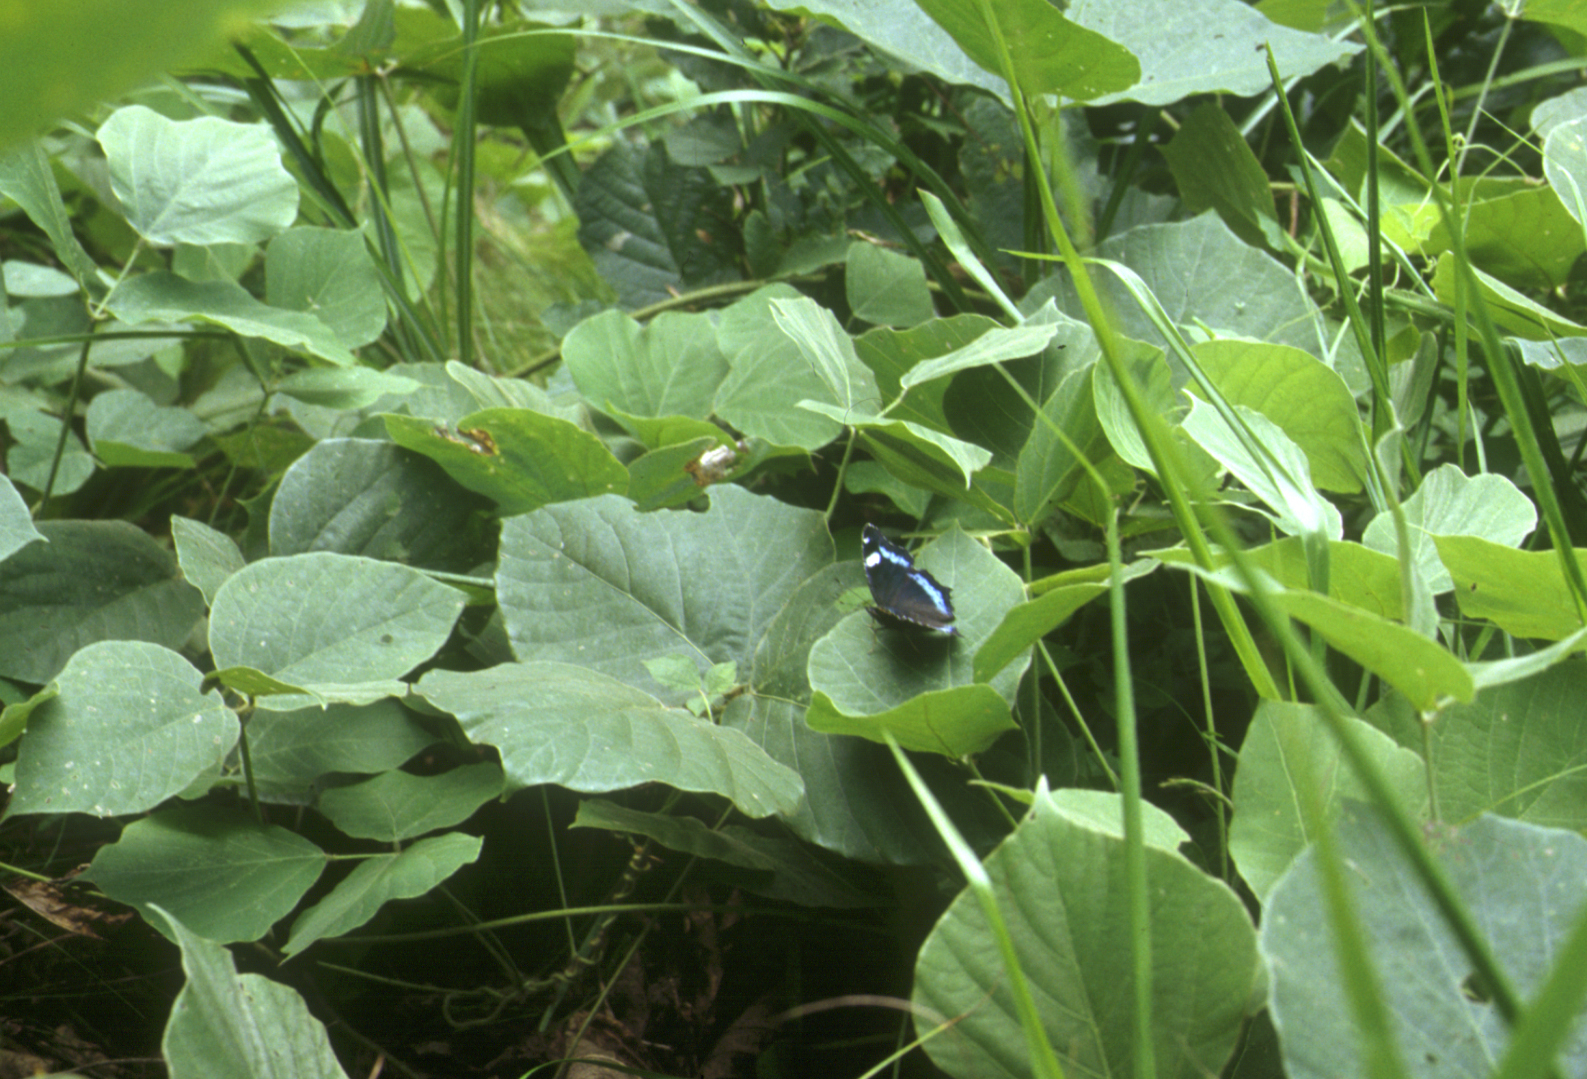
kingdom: Plantae
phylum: Tracheophyta
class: Magnoliopsida
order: Fabales
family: Fabaceae
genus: Pueraria
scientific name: Pueraria montana
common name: Kudzu
